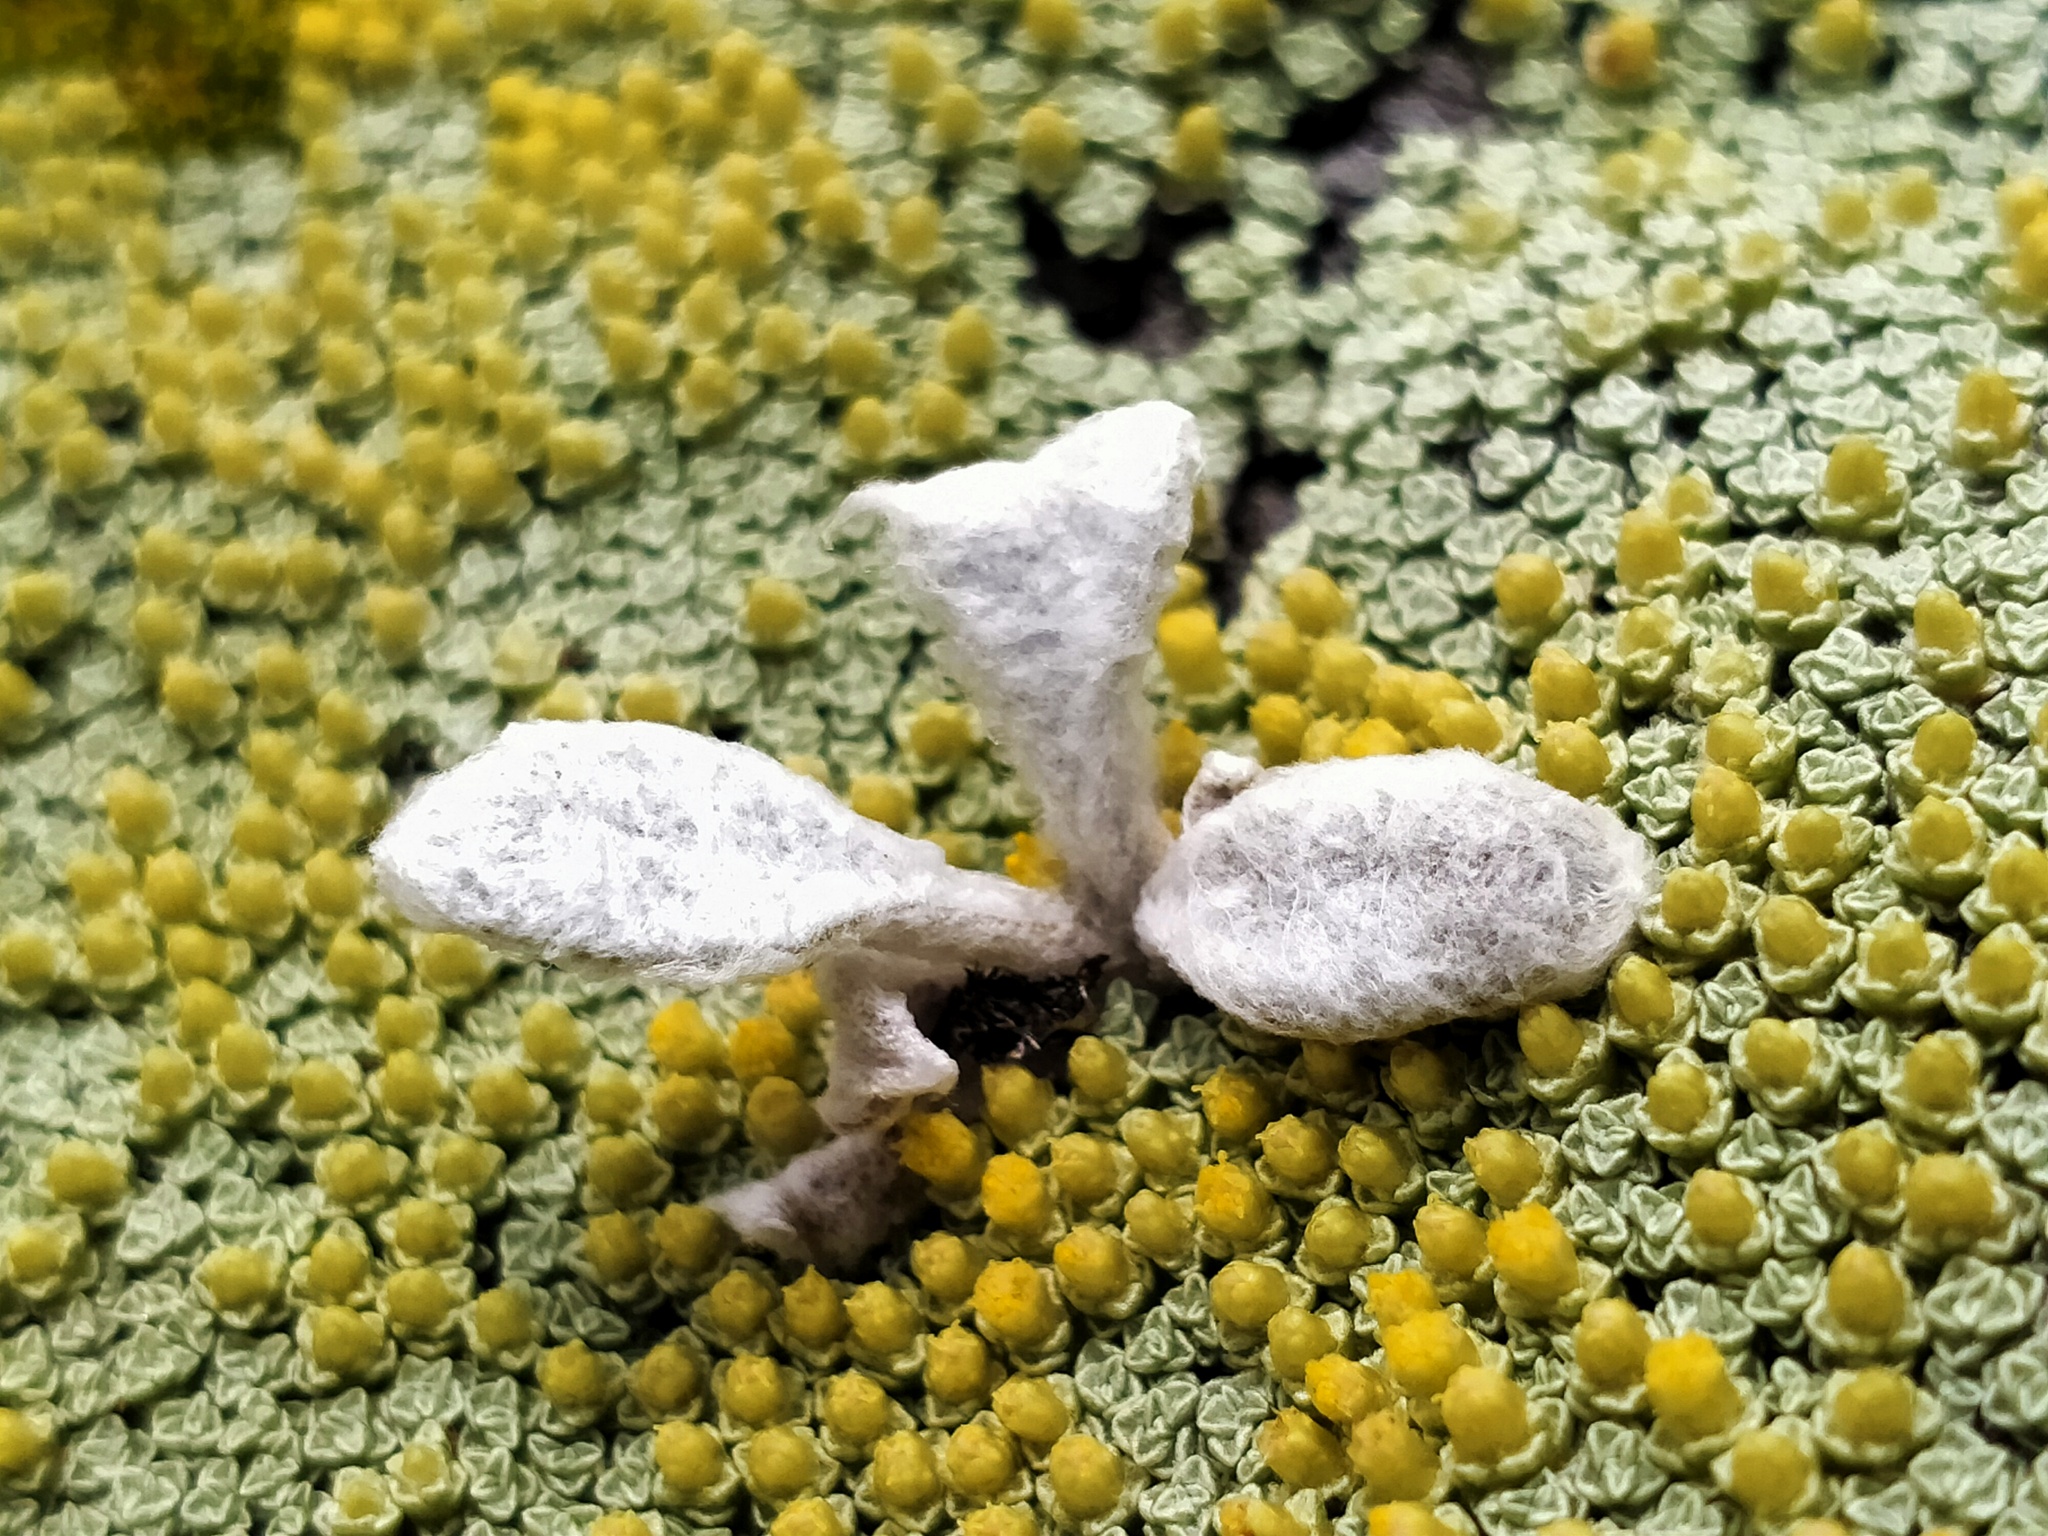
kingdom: Plantae
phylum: Tracheophyta
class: Magnoliopsida
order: Asterales
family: Asteraceae
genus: Craspedia
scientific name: Craspedia
